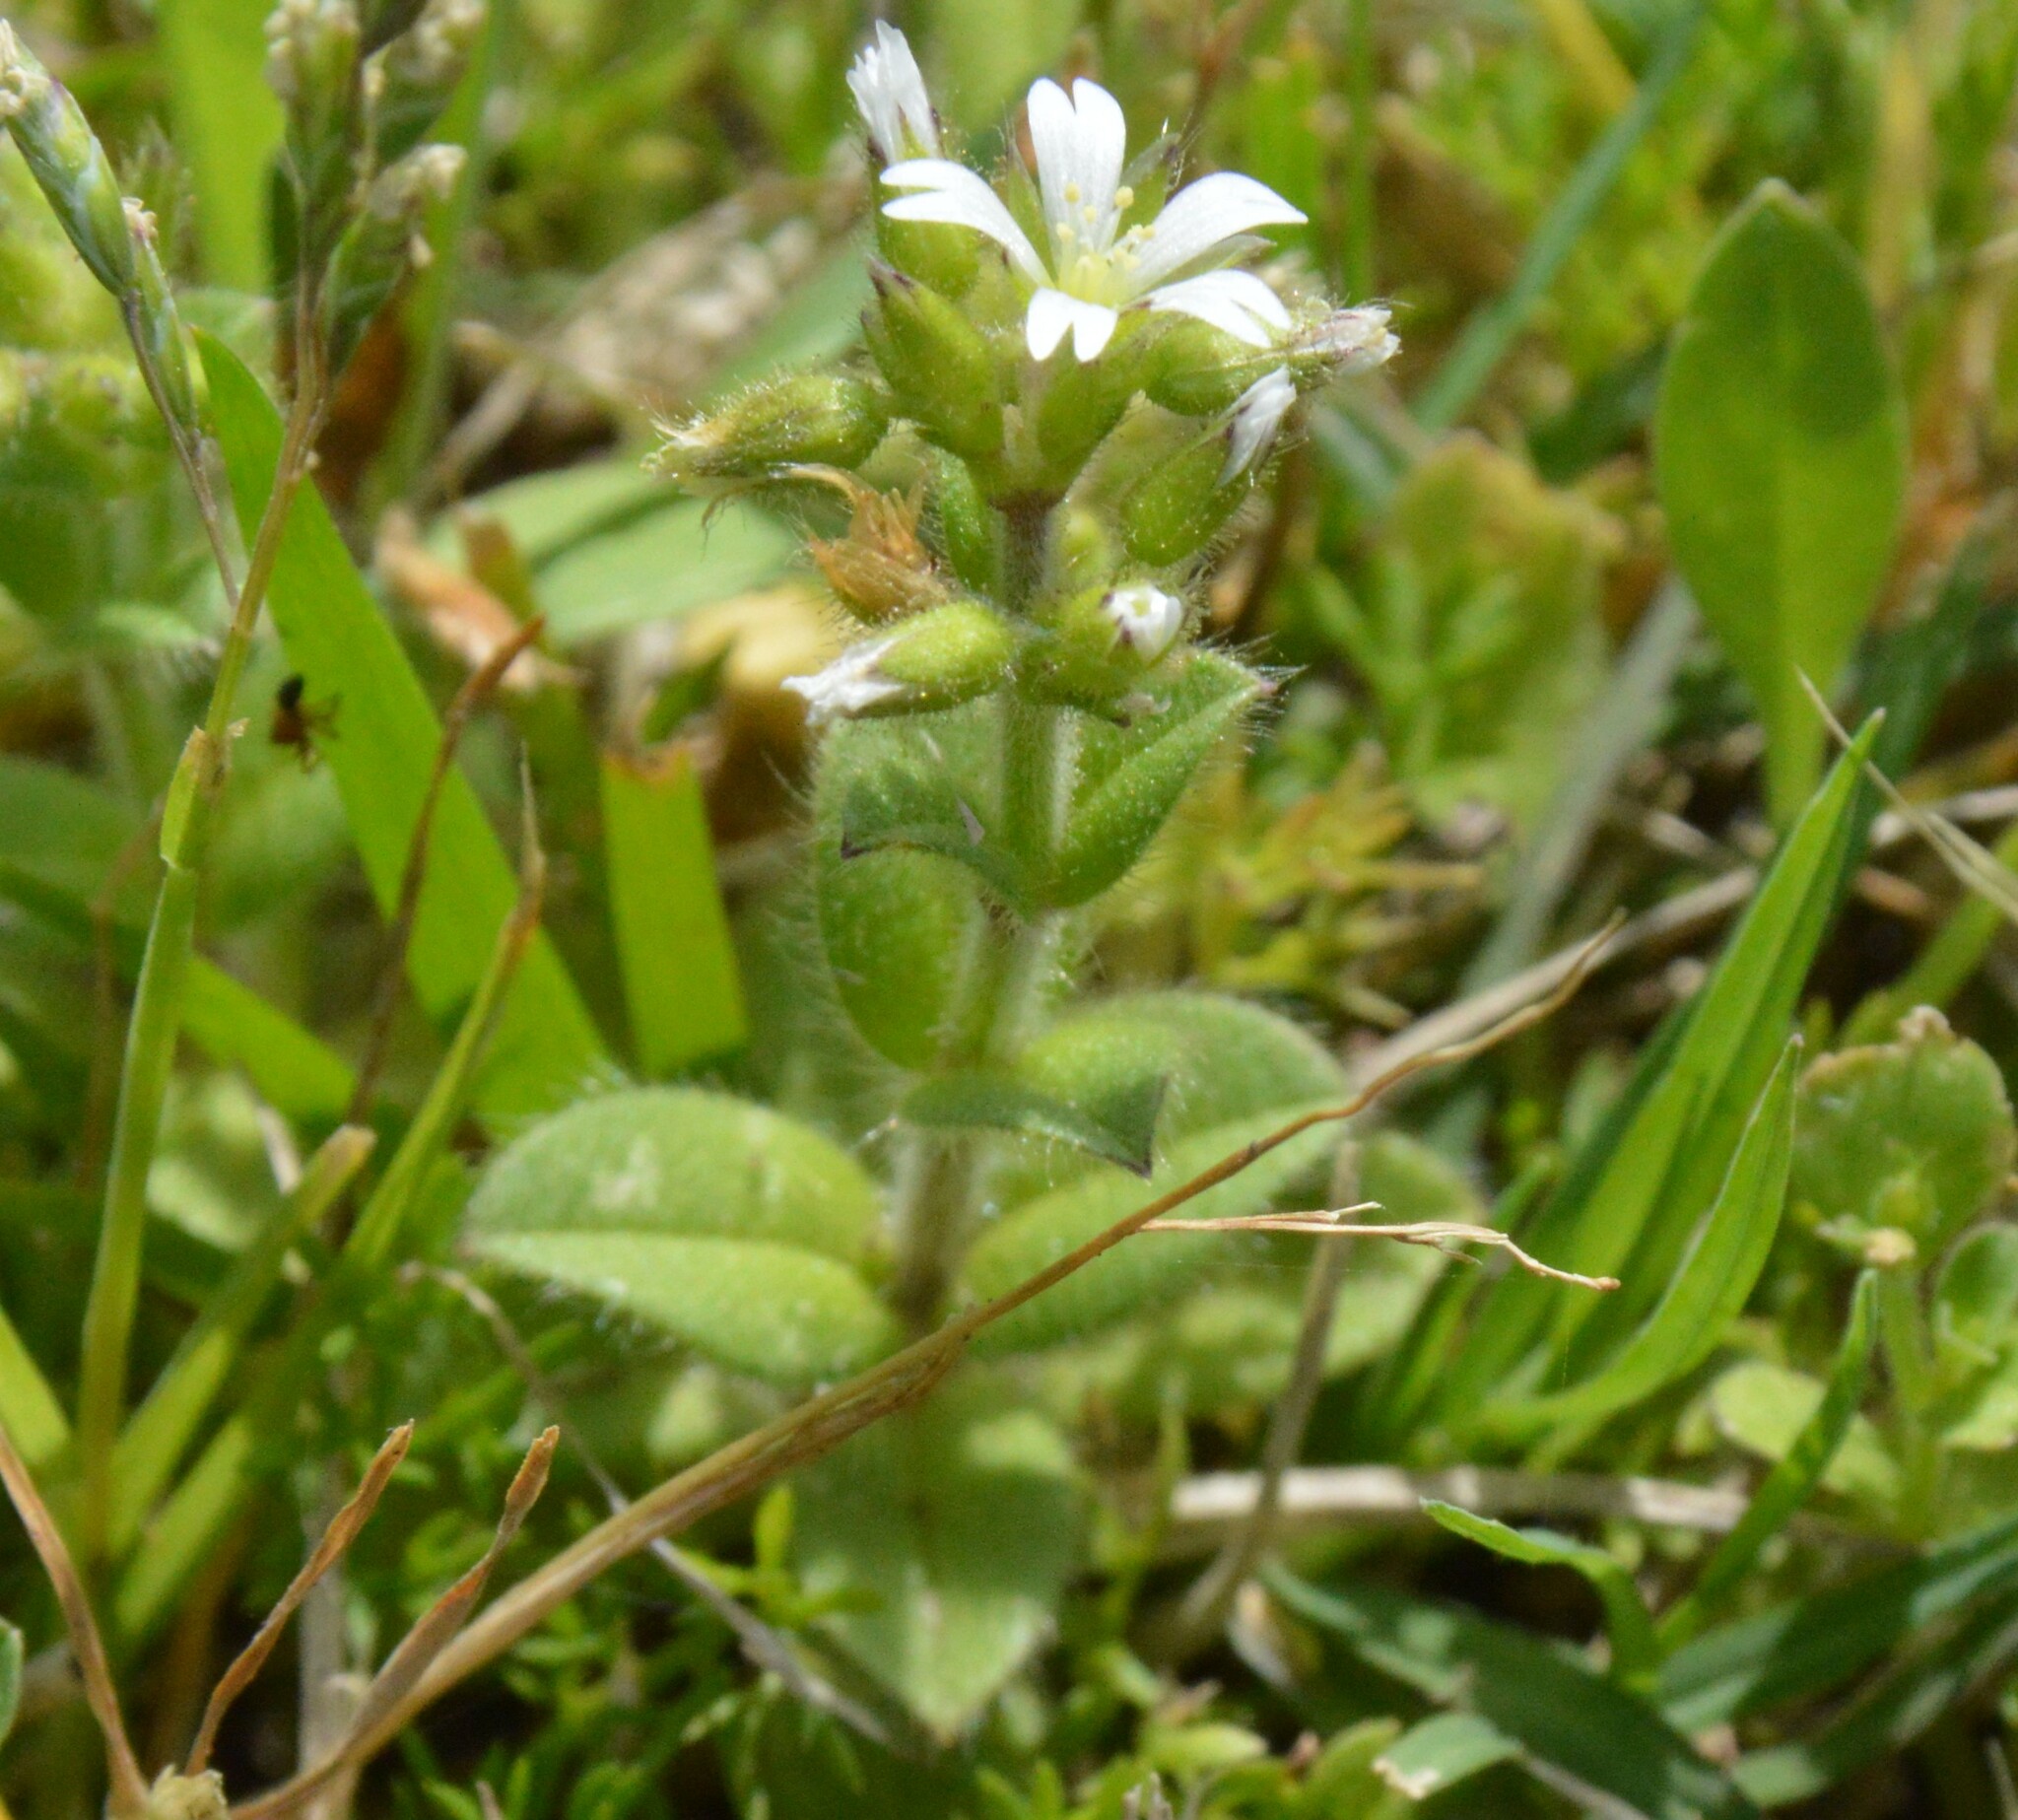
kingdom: Plantae
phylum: Tracheophyta
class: Magnoliopsida
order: Caryophyllales
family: Caryophyllaceae
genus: Cerastium
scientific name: Cerastium glomeratum
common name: Sticky chickweed
